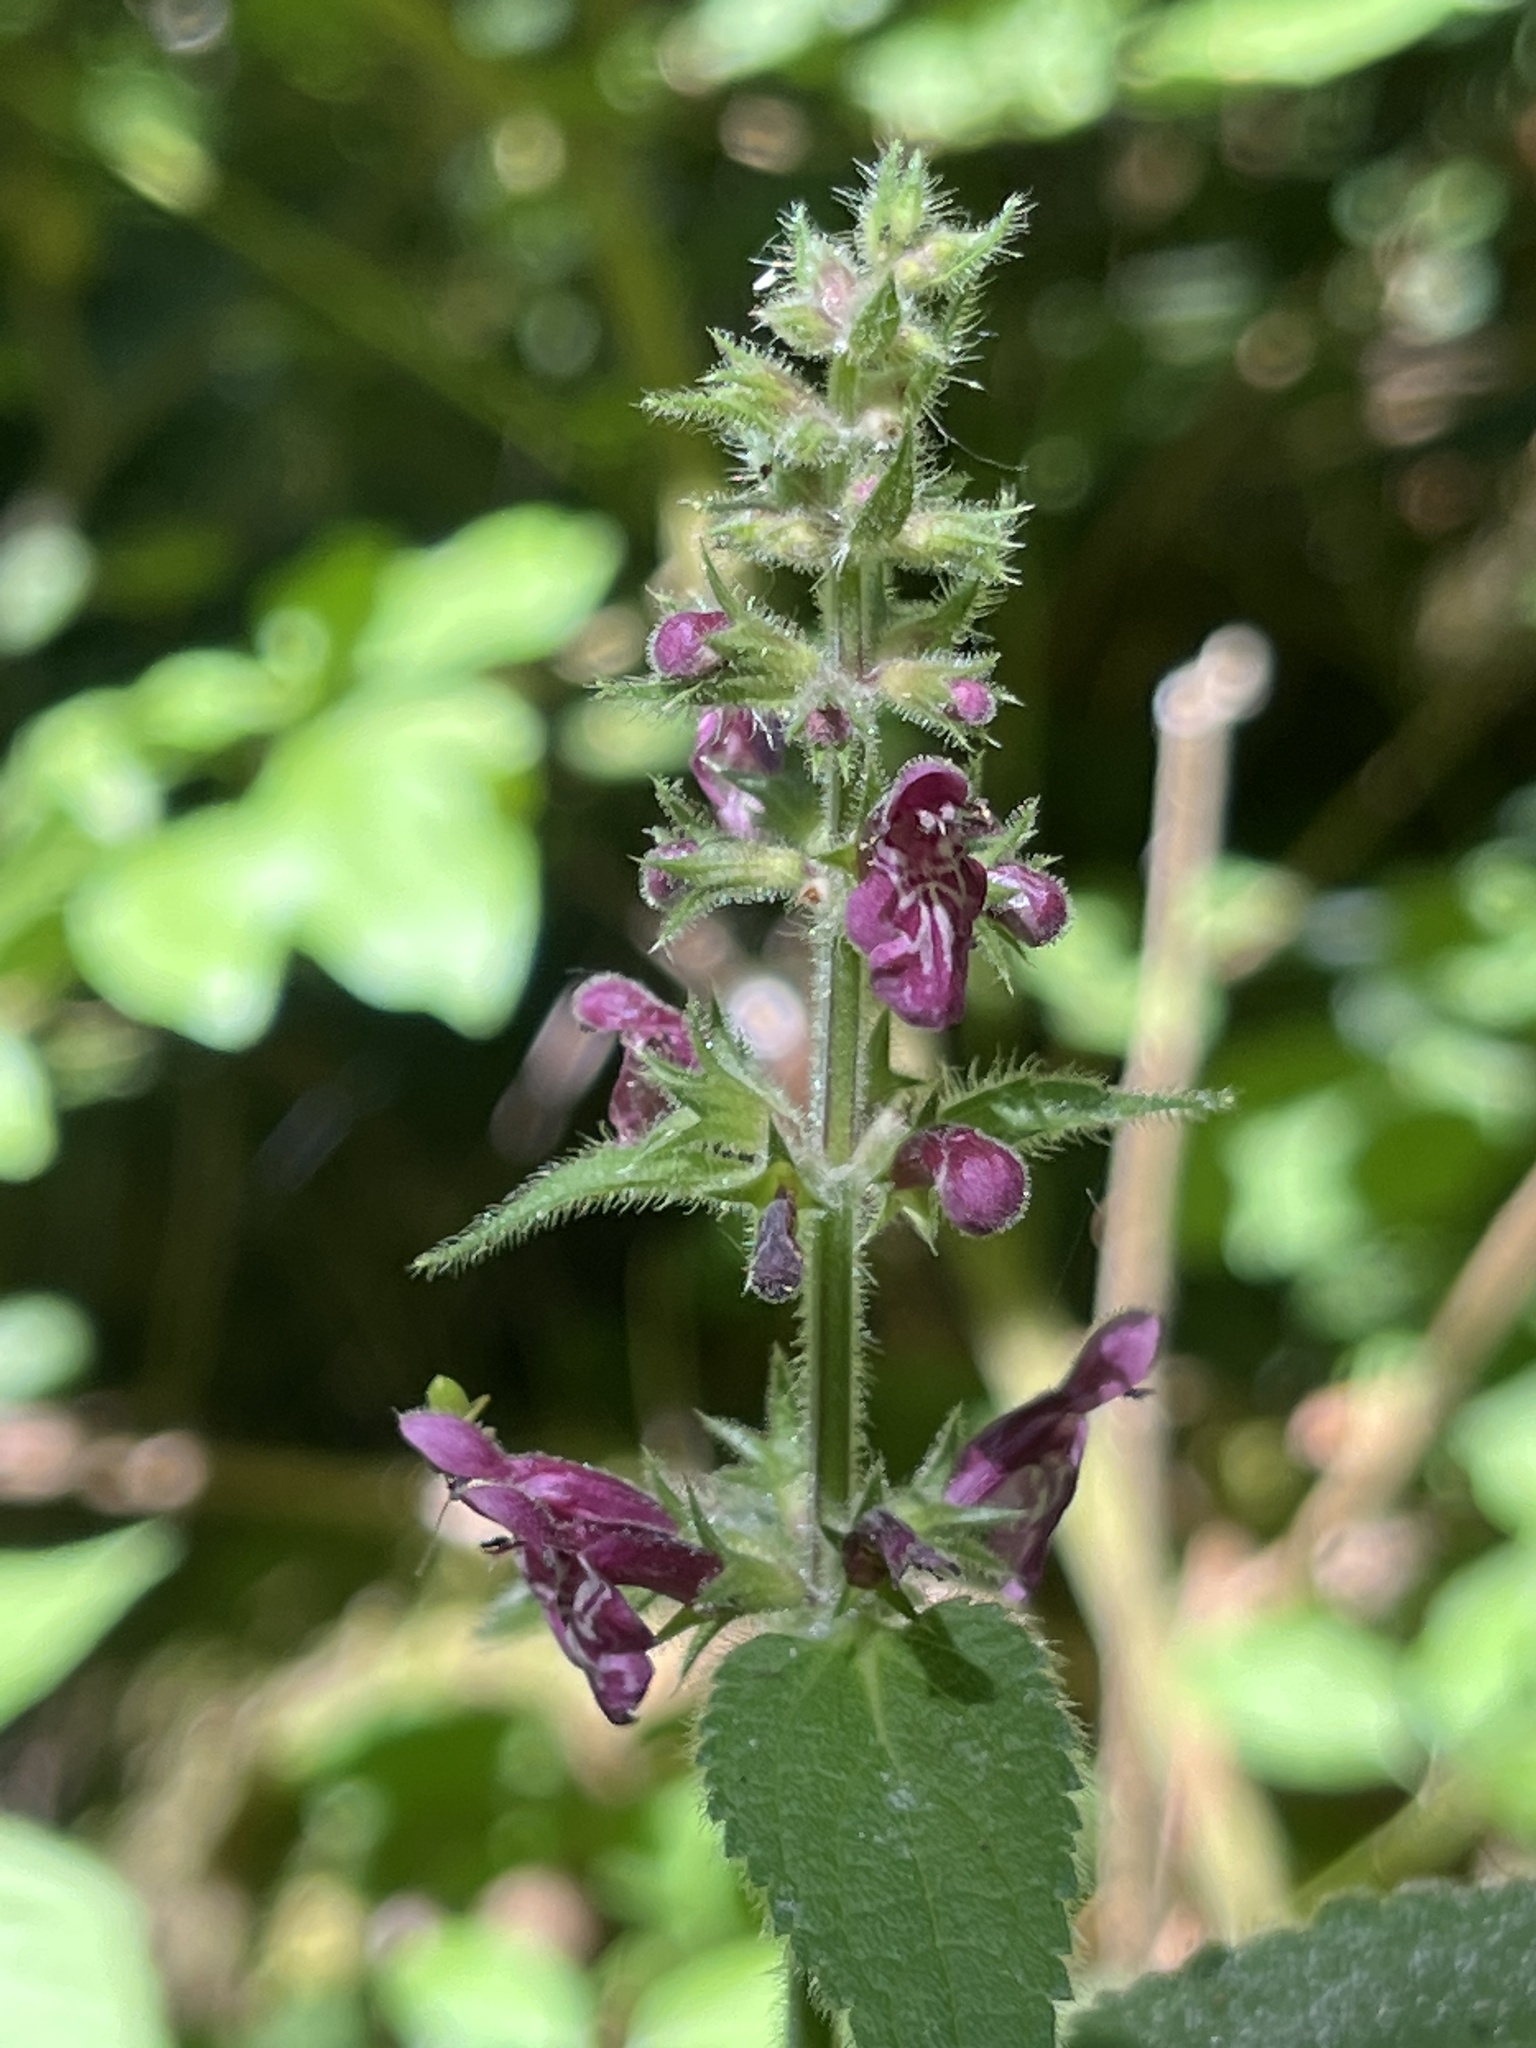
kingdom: Plantae
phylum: Tracheophyta
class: Magnoliopsida
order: Lamiales
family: Lamiaceae
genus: Stachys
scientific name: Stachys sylvatica
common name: Hedge woundwort
